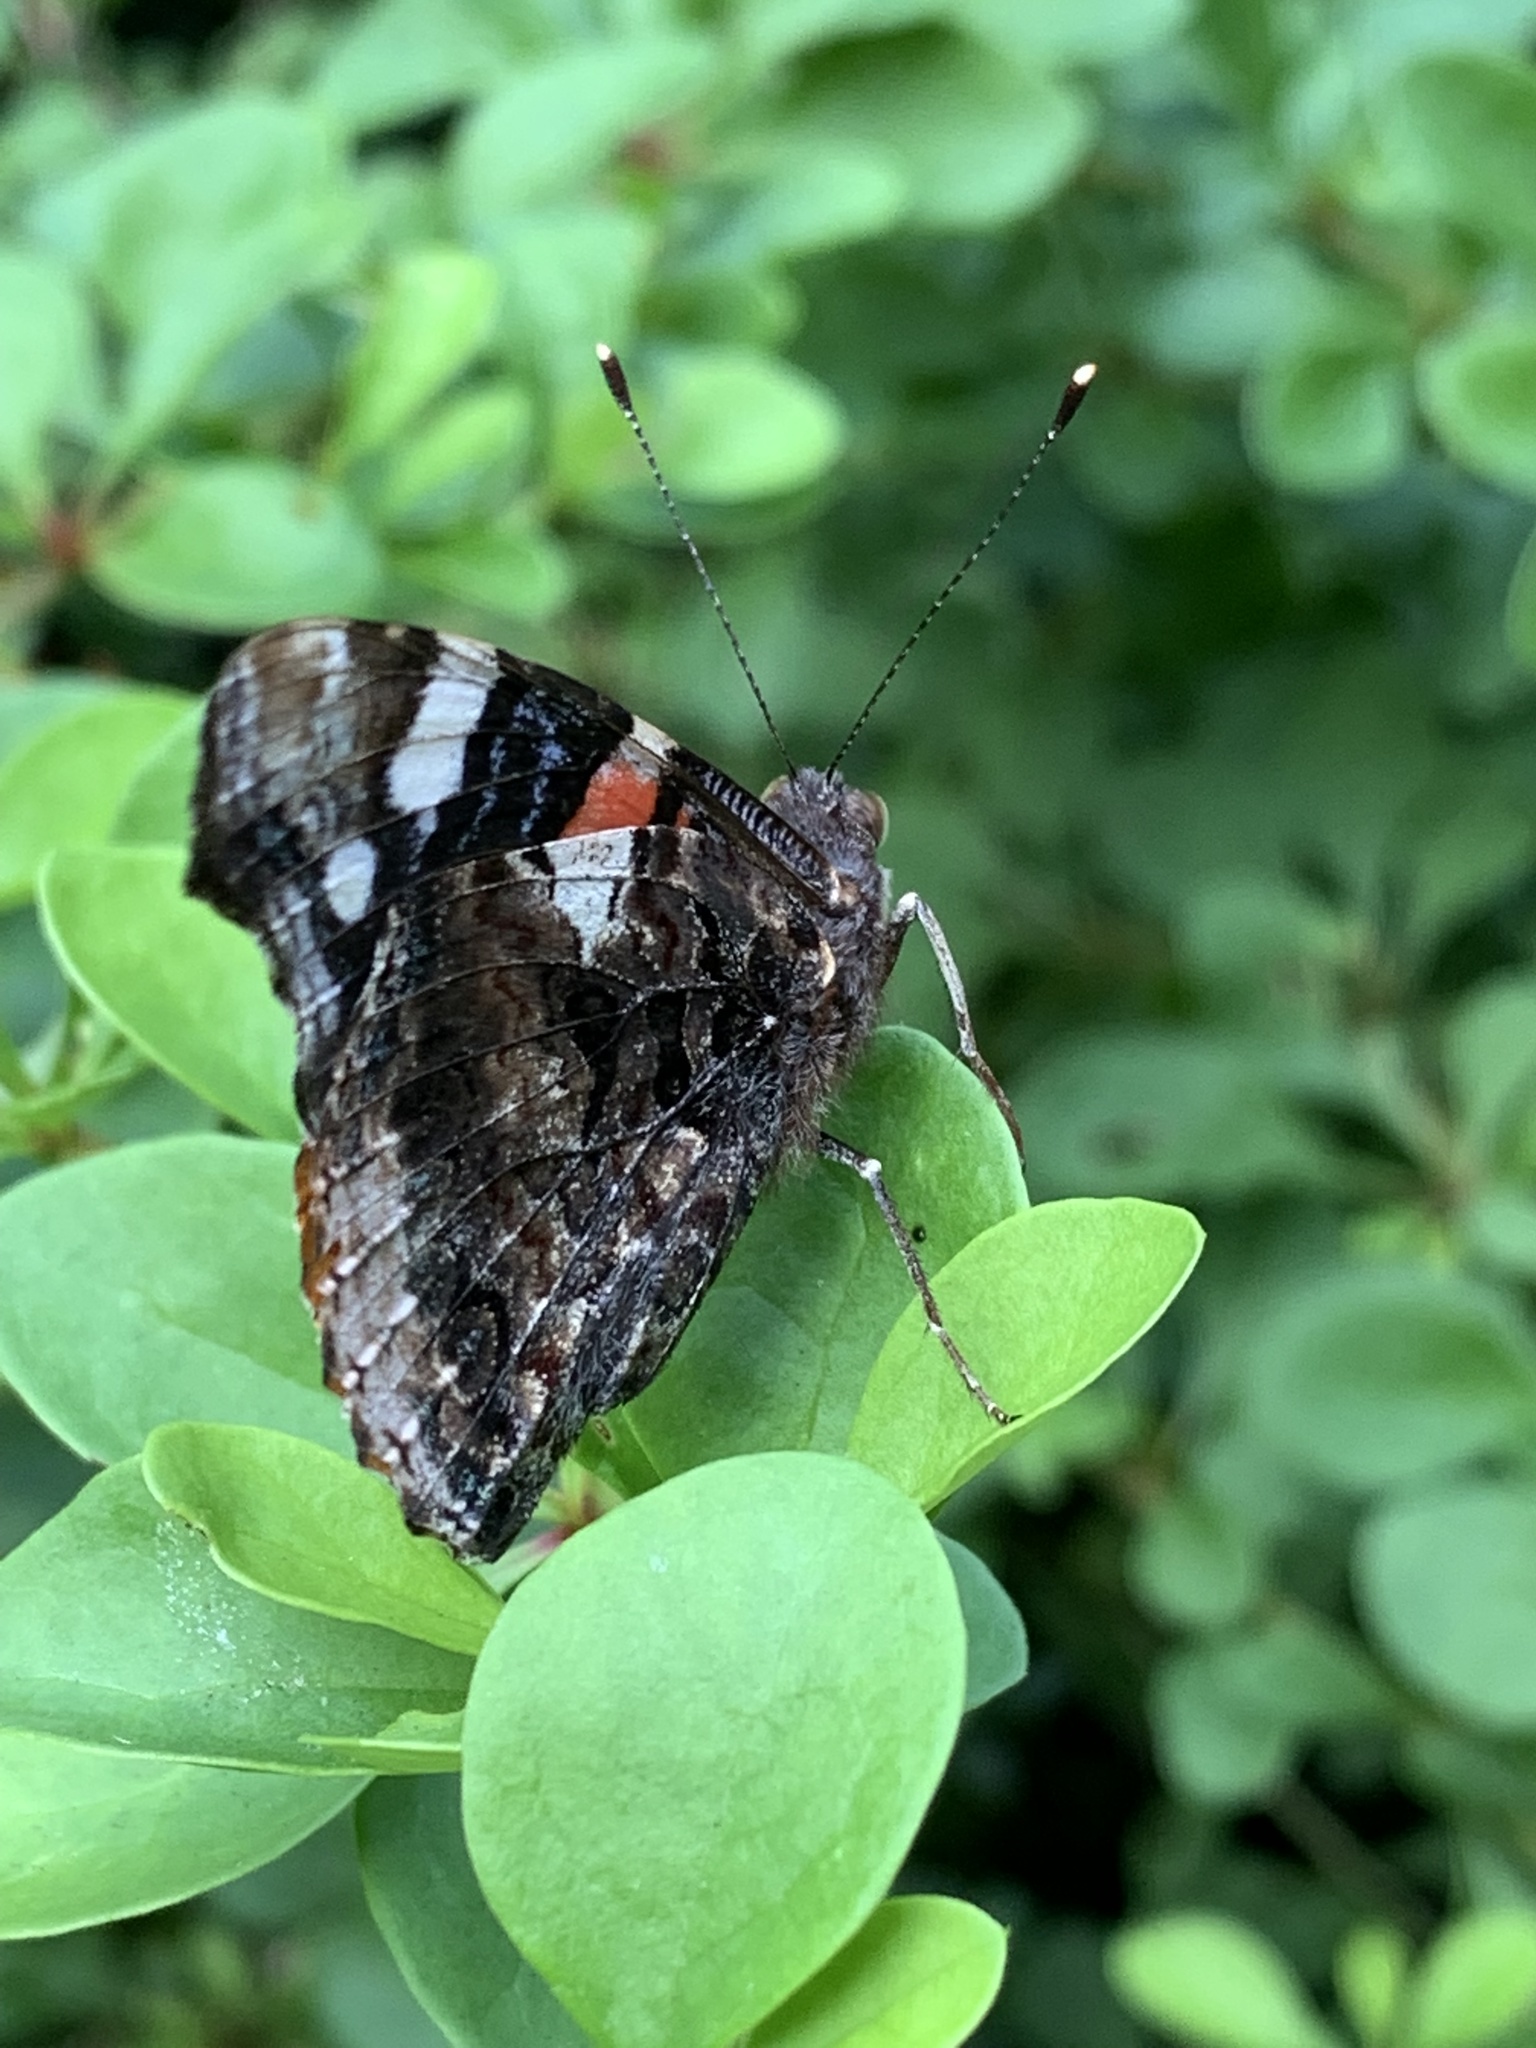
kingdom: Animalia
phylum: Arthropoda
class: Insecta
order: Lepidoptera
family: Nymphalidae
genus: Vanessa
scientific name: Vanessa atalanta
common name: Red admiral
